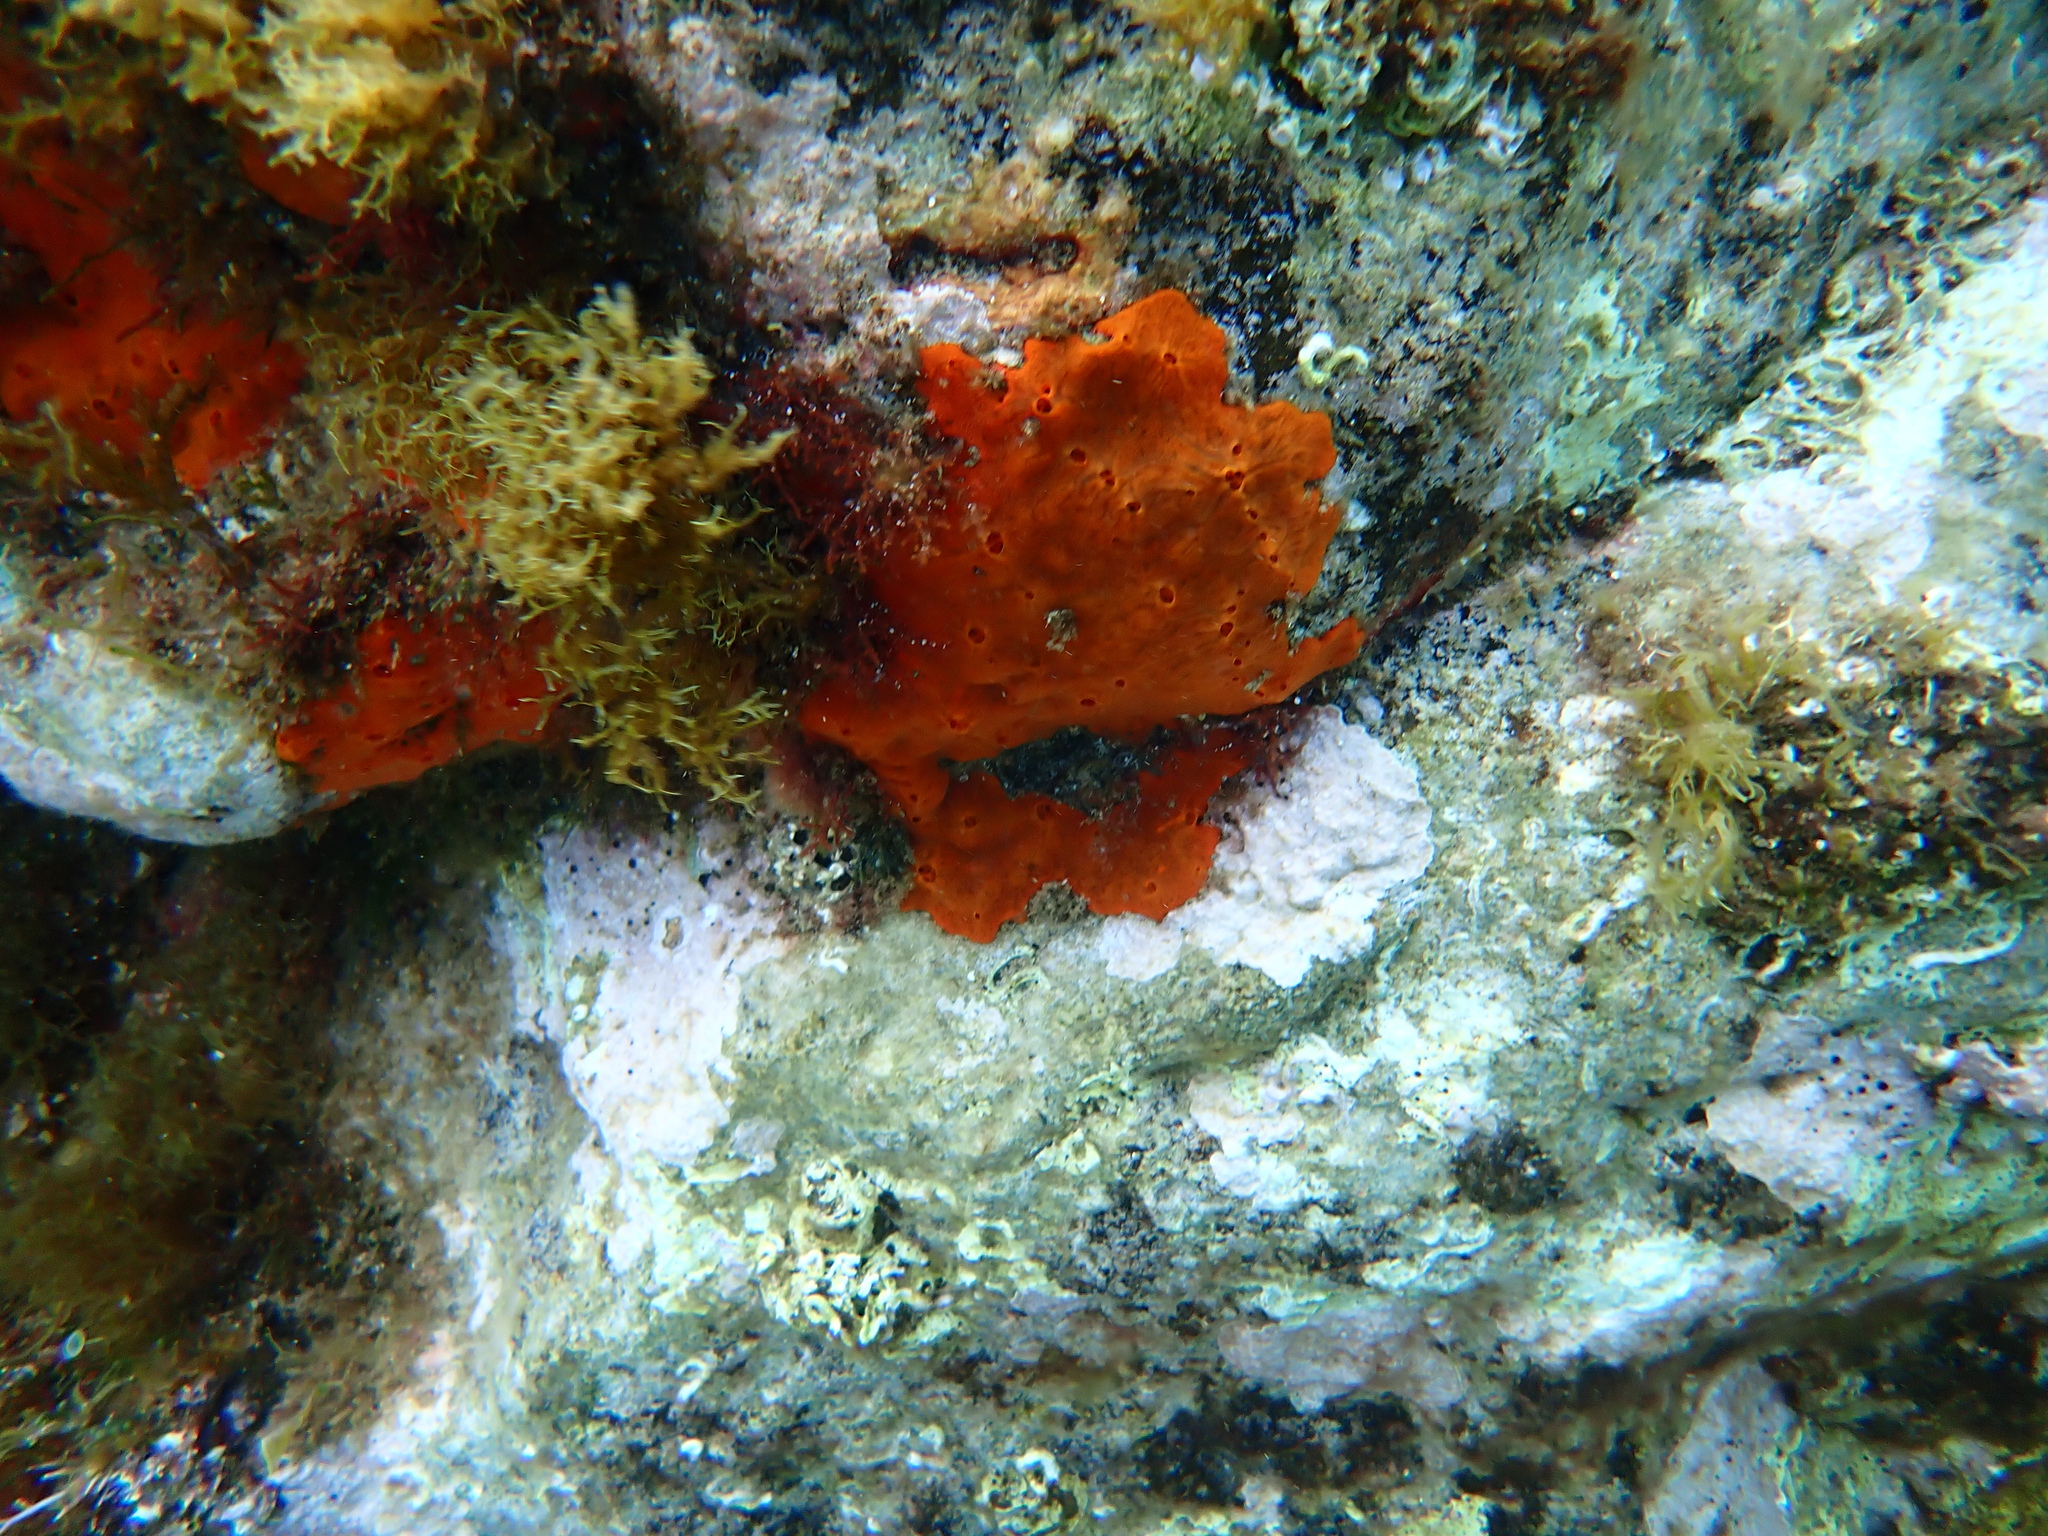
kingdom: Animalia
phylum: Porifera
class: Demospongiae
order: Poecilosclerida
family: Crambeidae
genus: Crambe
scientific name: Crambe crambe
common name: Orange-red encrusting sponge
